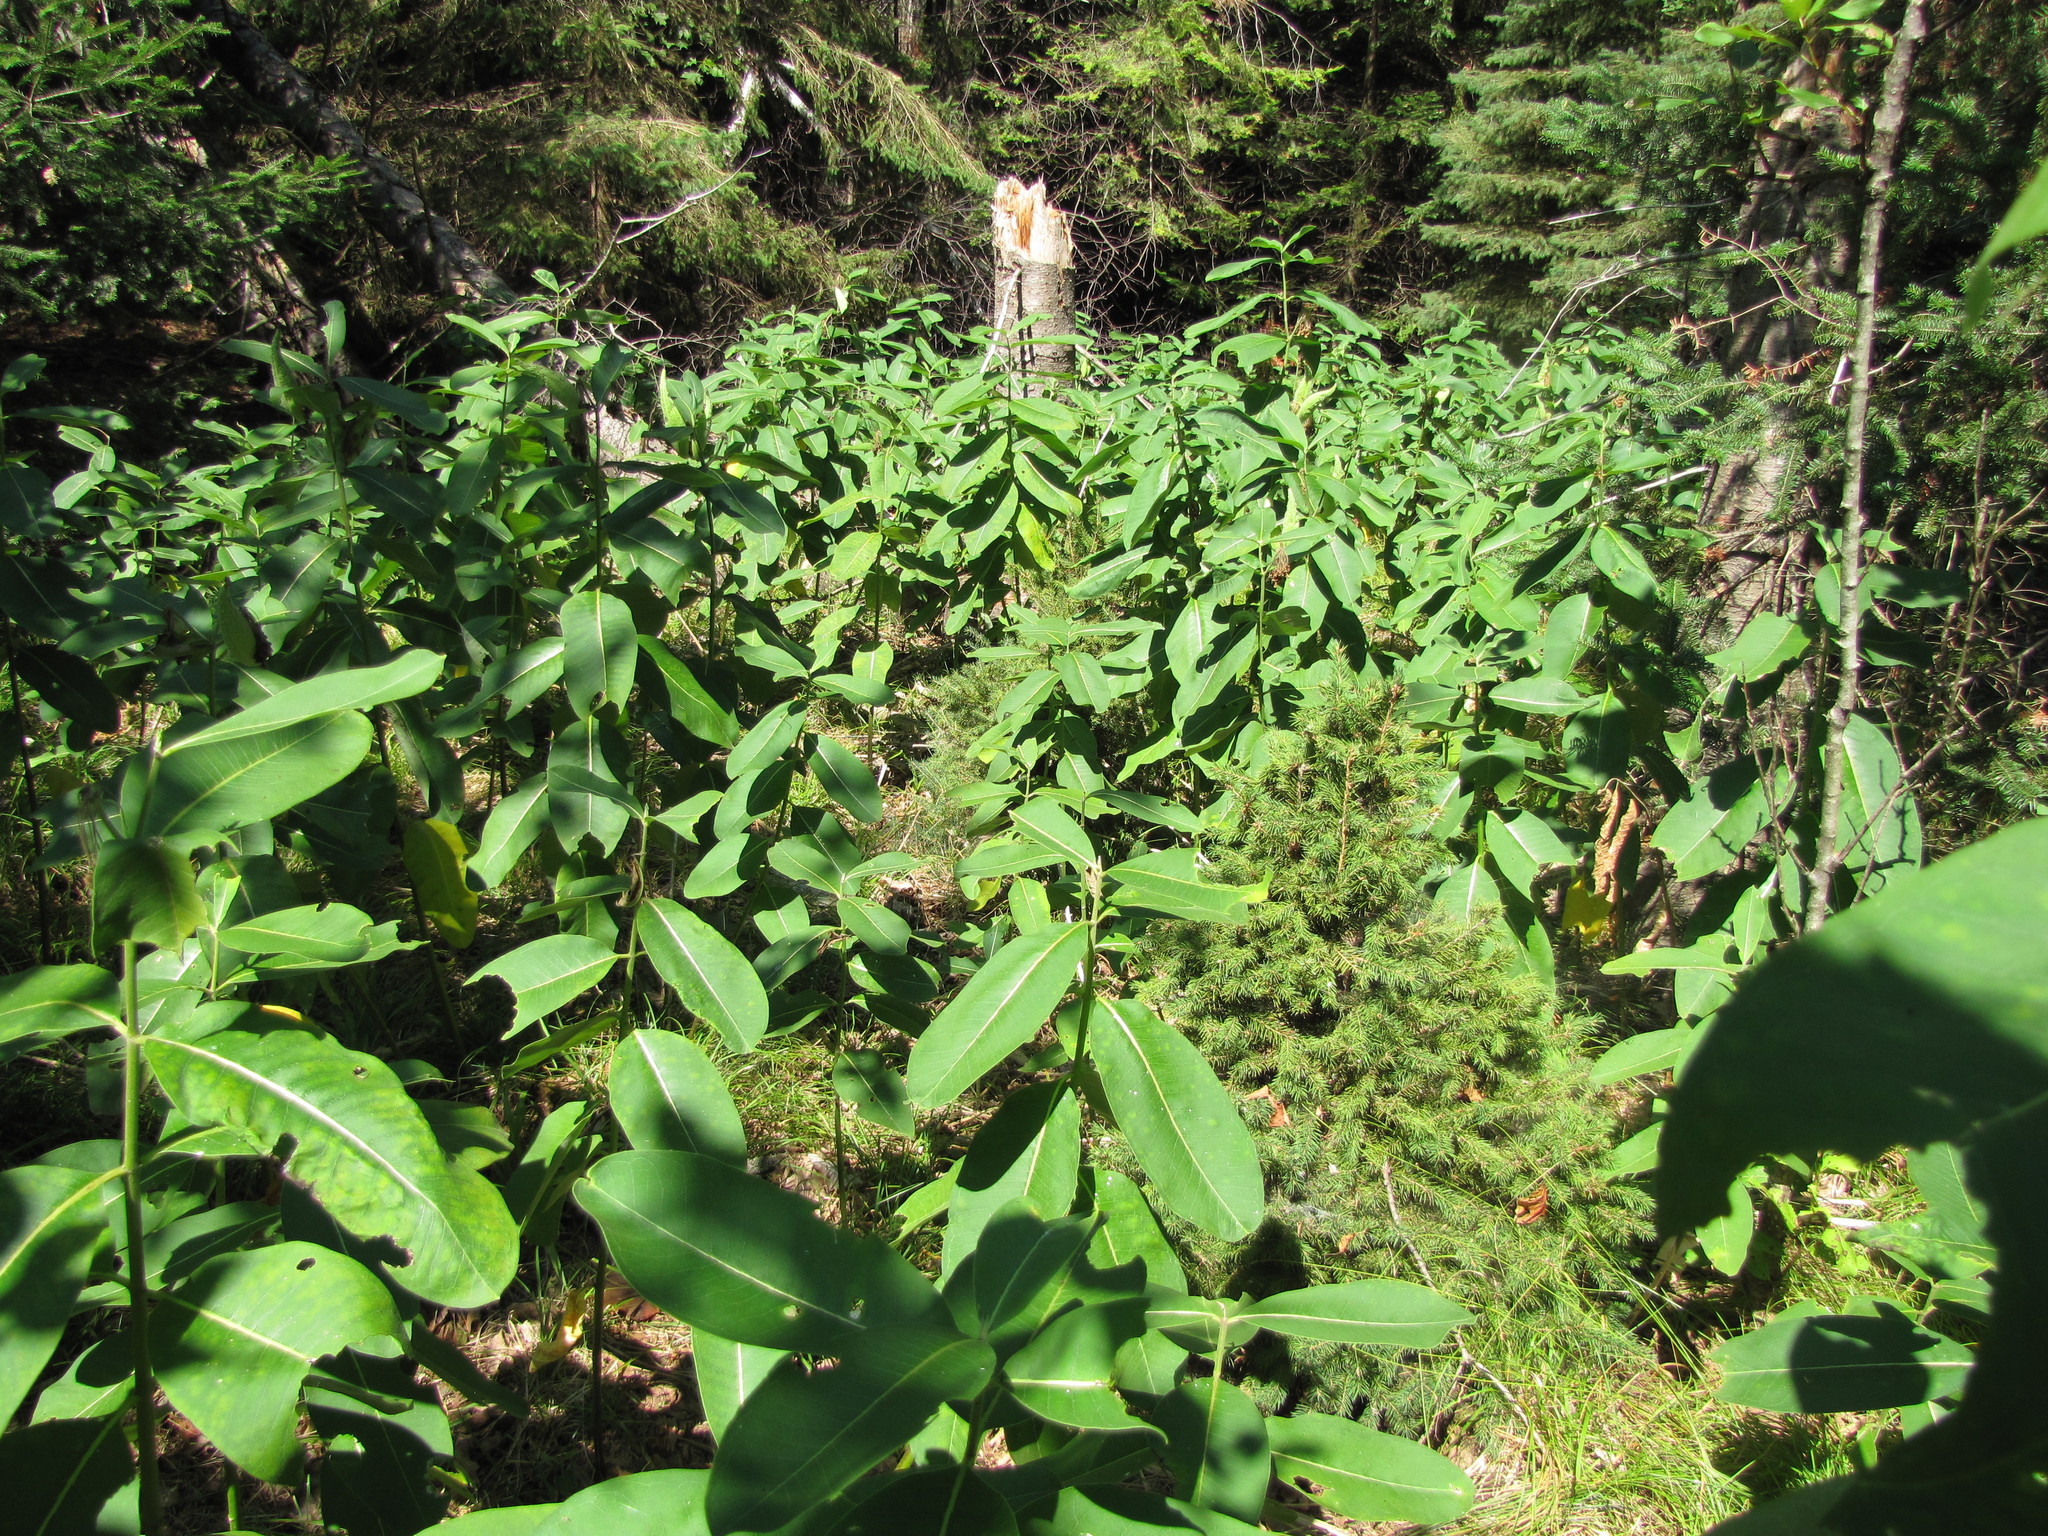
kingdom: Plantae
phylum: Tracheophyta
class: Magnoliopsida
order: Gentianales
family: Apocynaceae
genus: Asclepias
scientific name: Asclepias syriaca
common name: Common milkweed
